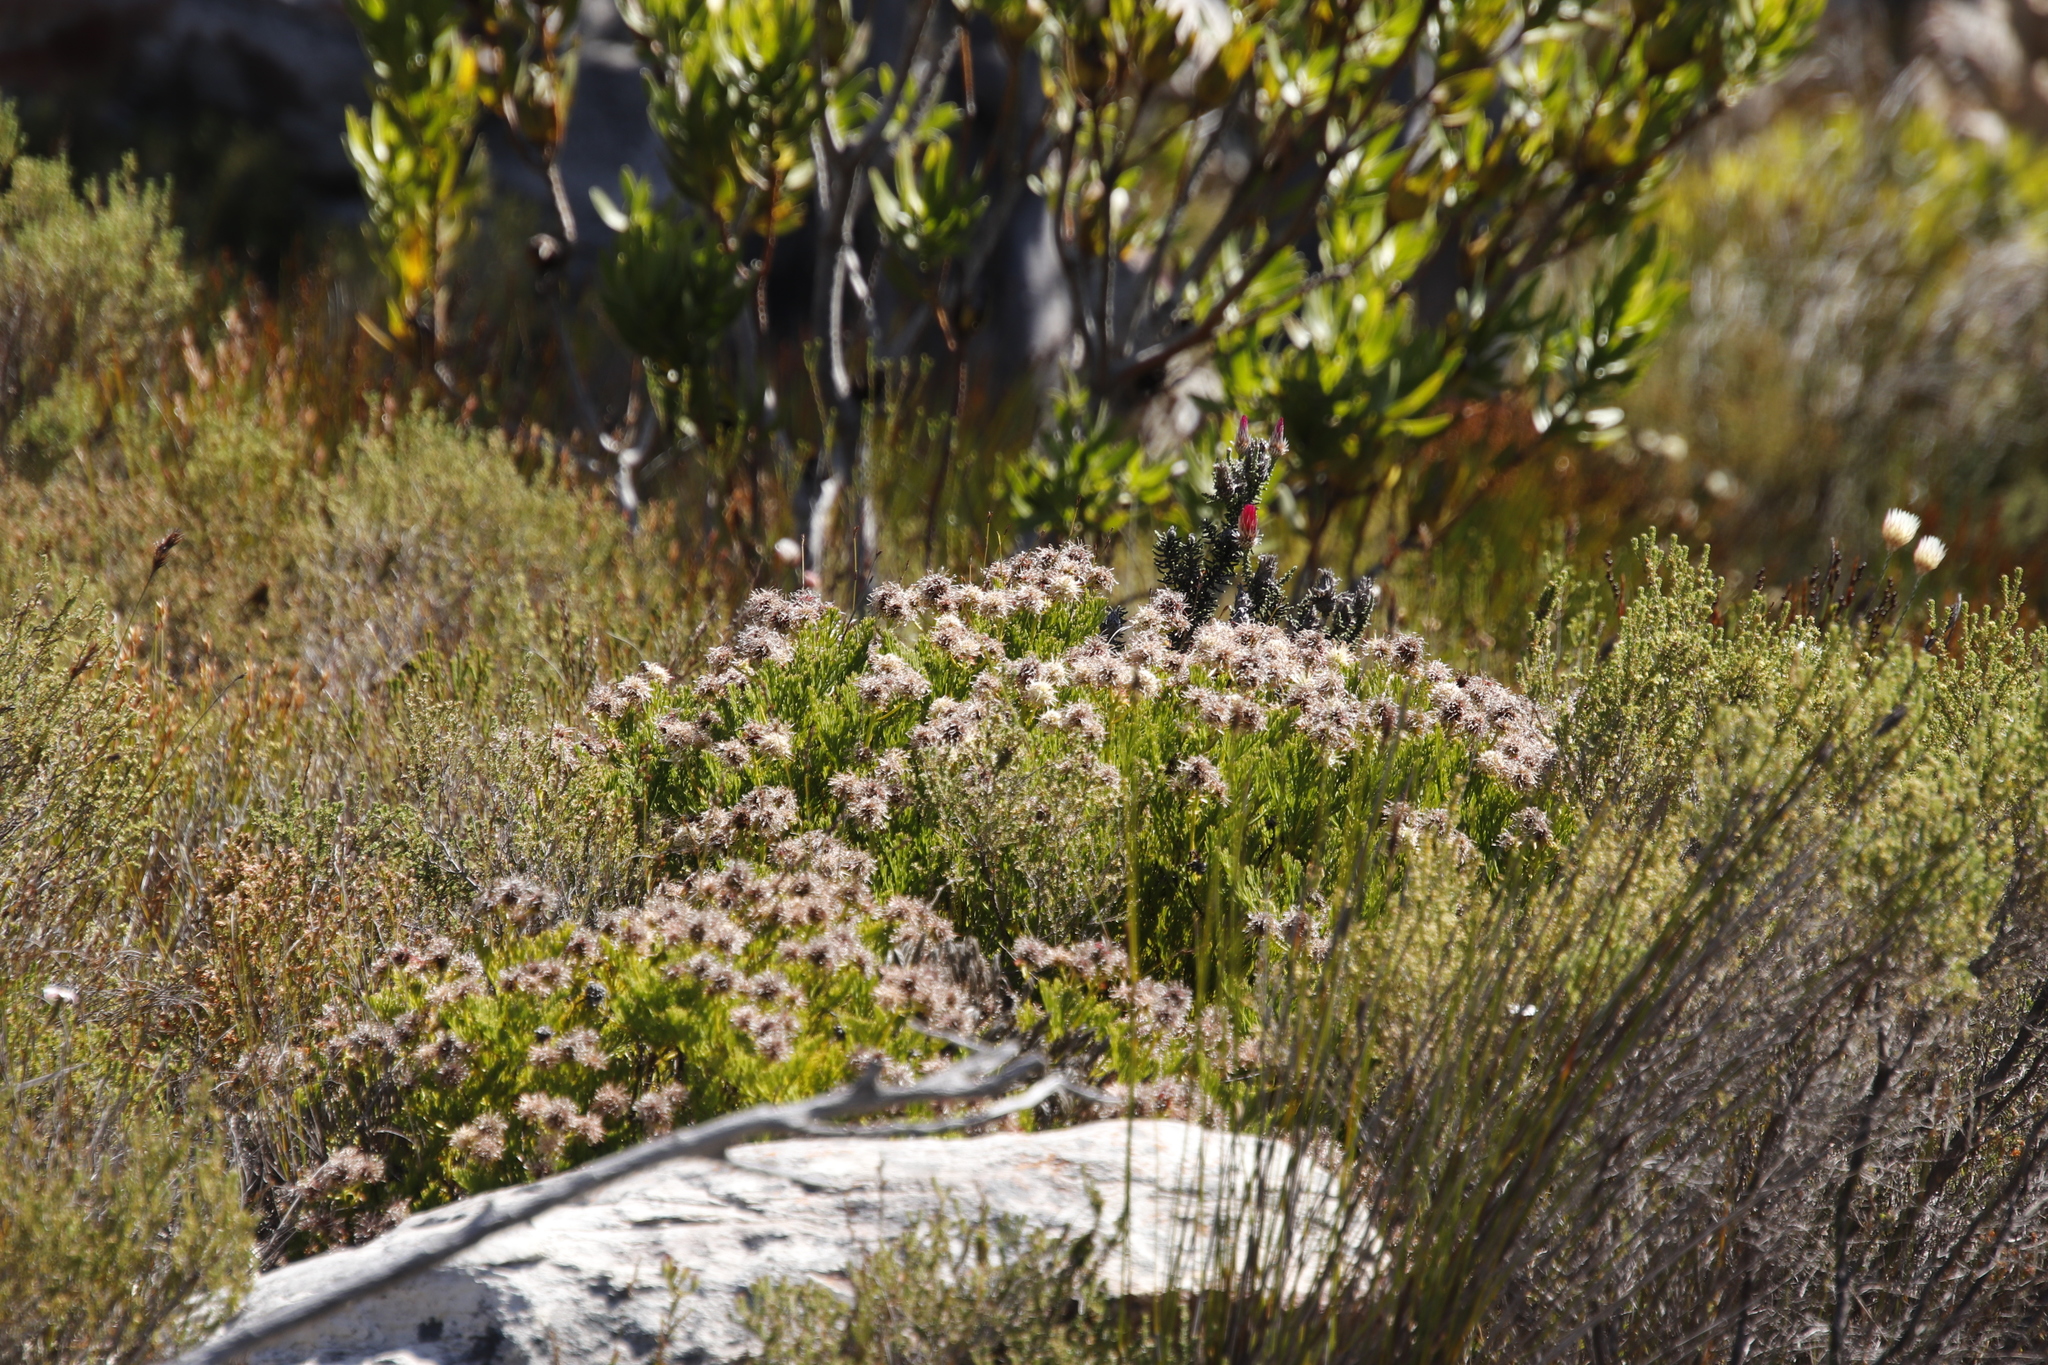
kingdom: Plantae
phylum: Tracheophyta
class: Magnoliopsida
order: Proteales
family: Proteaceae
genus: Serruria
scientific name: Serruria elongata
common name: Long-stalk spiderhead
